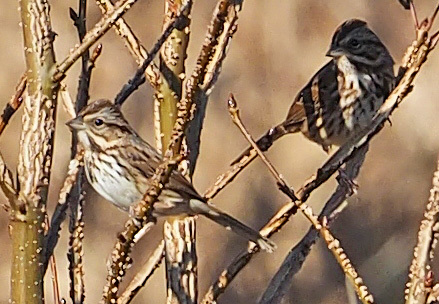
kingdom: Animalia
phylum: Chordata
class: Aves
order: Passeriformes
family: Passerellidae
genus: Melospiza
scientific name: Melospiza melodia
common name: Song sparrow
